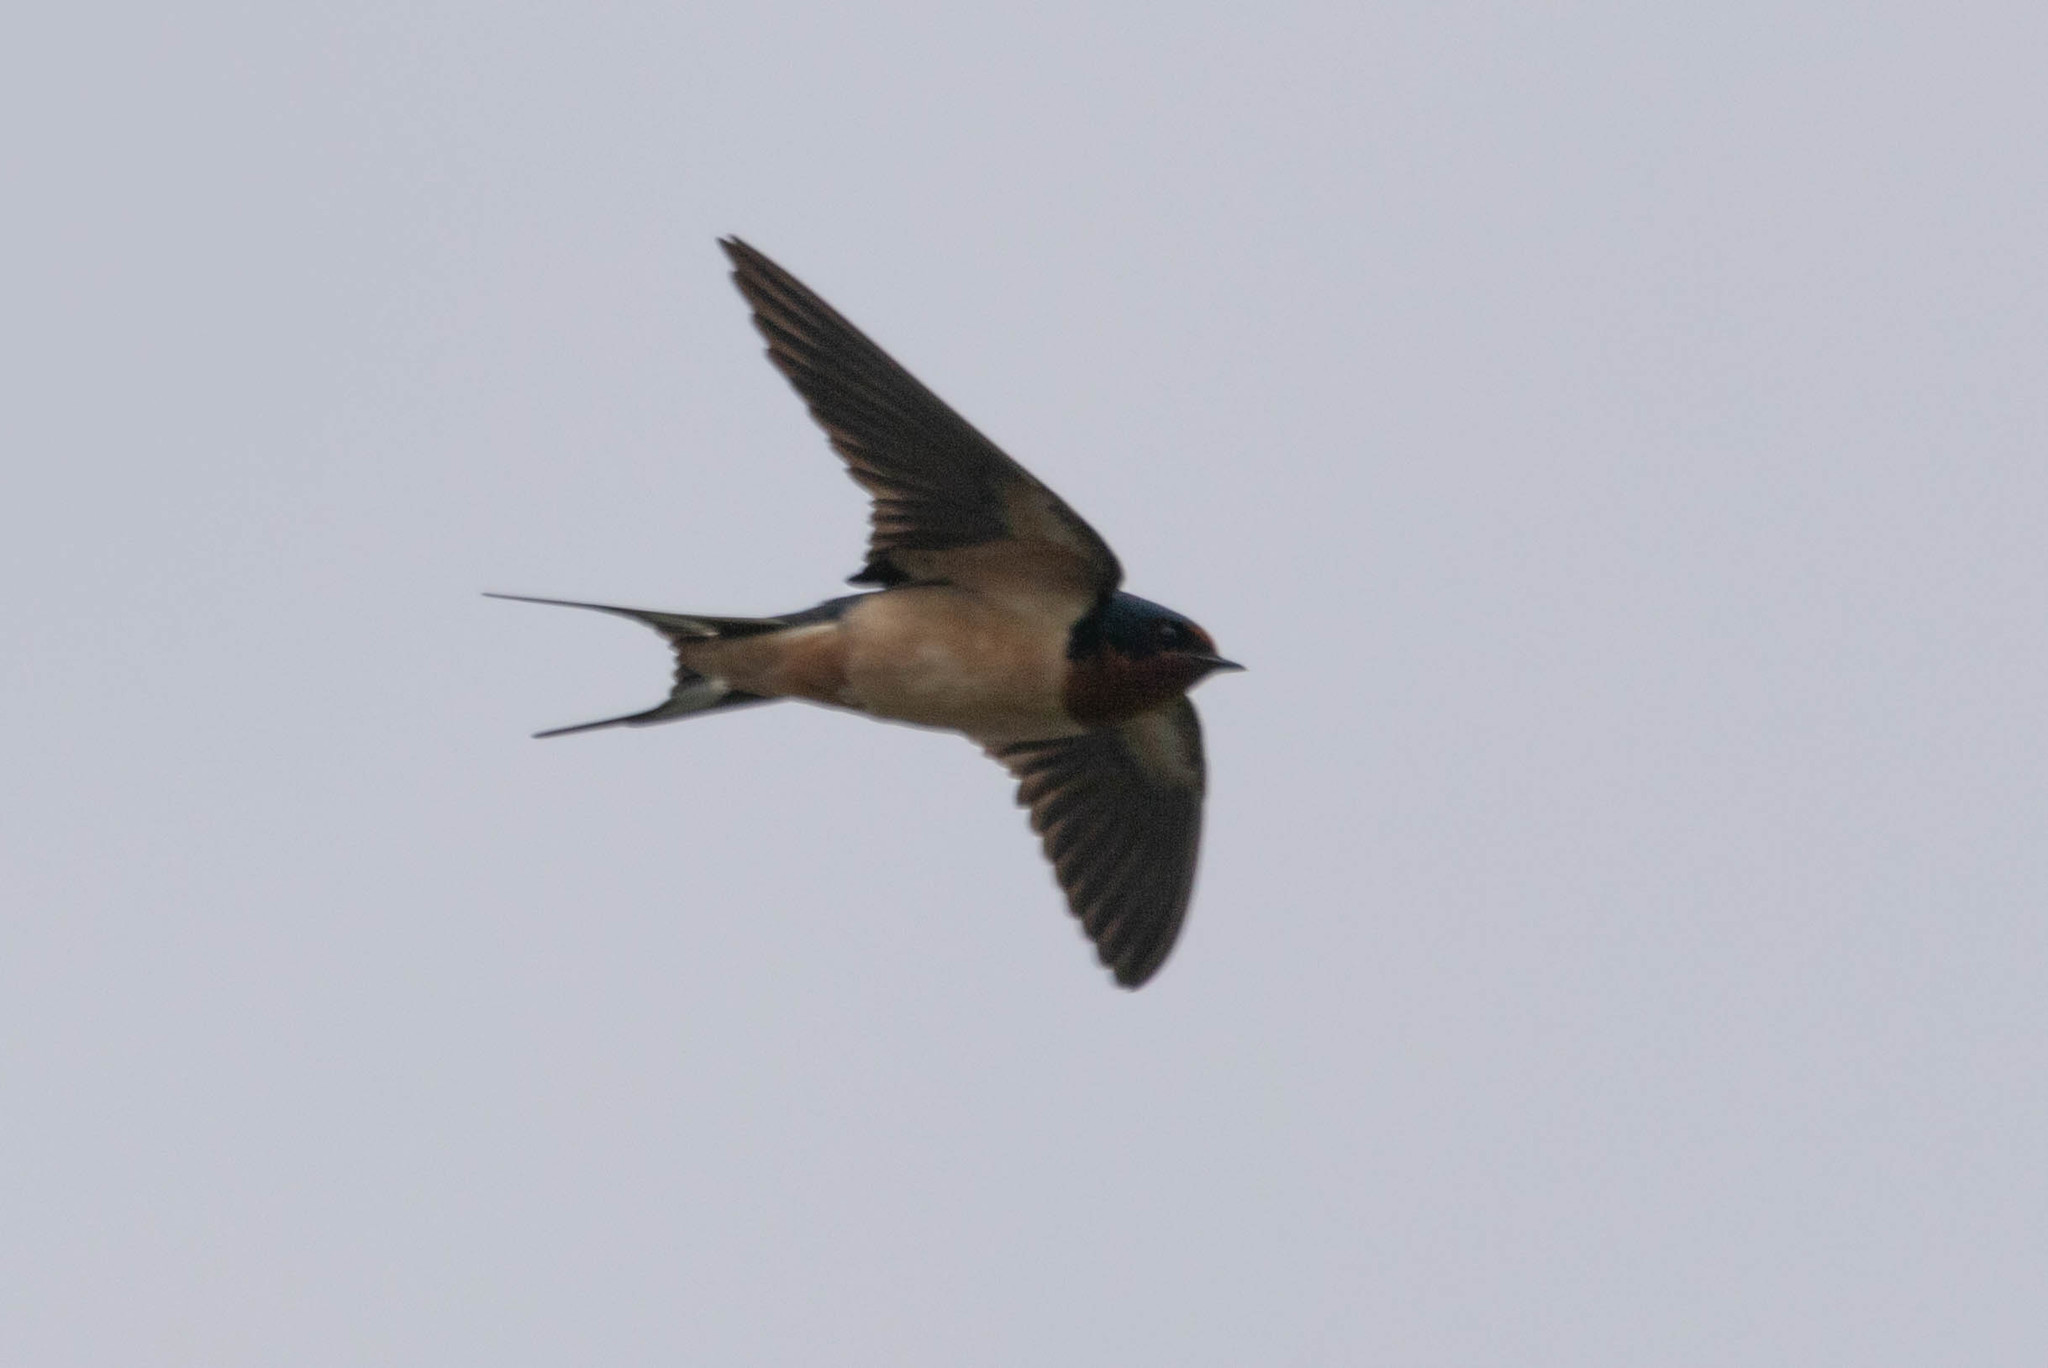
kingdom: Animalia
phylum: Chordata
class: Aves
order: Passeriformes
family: Hirundinidae
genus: Hirundo
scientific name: Hirundo rustica
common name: Barn swallow
